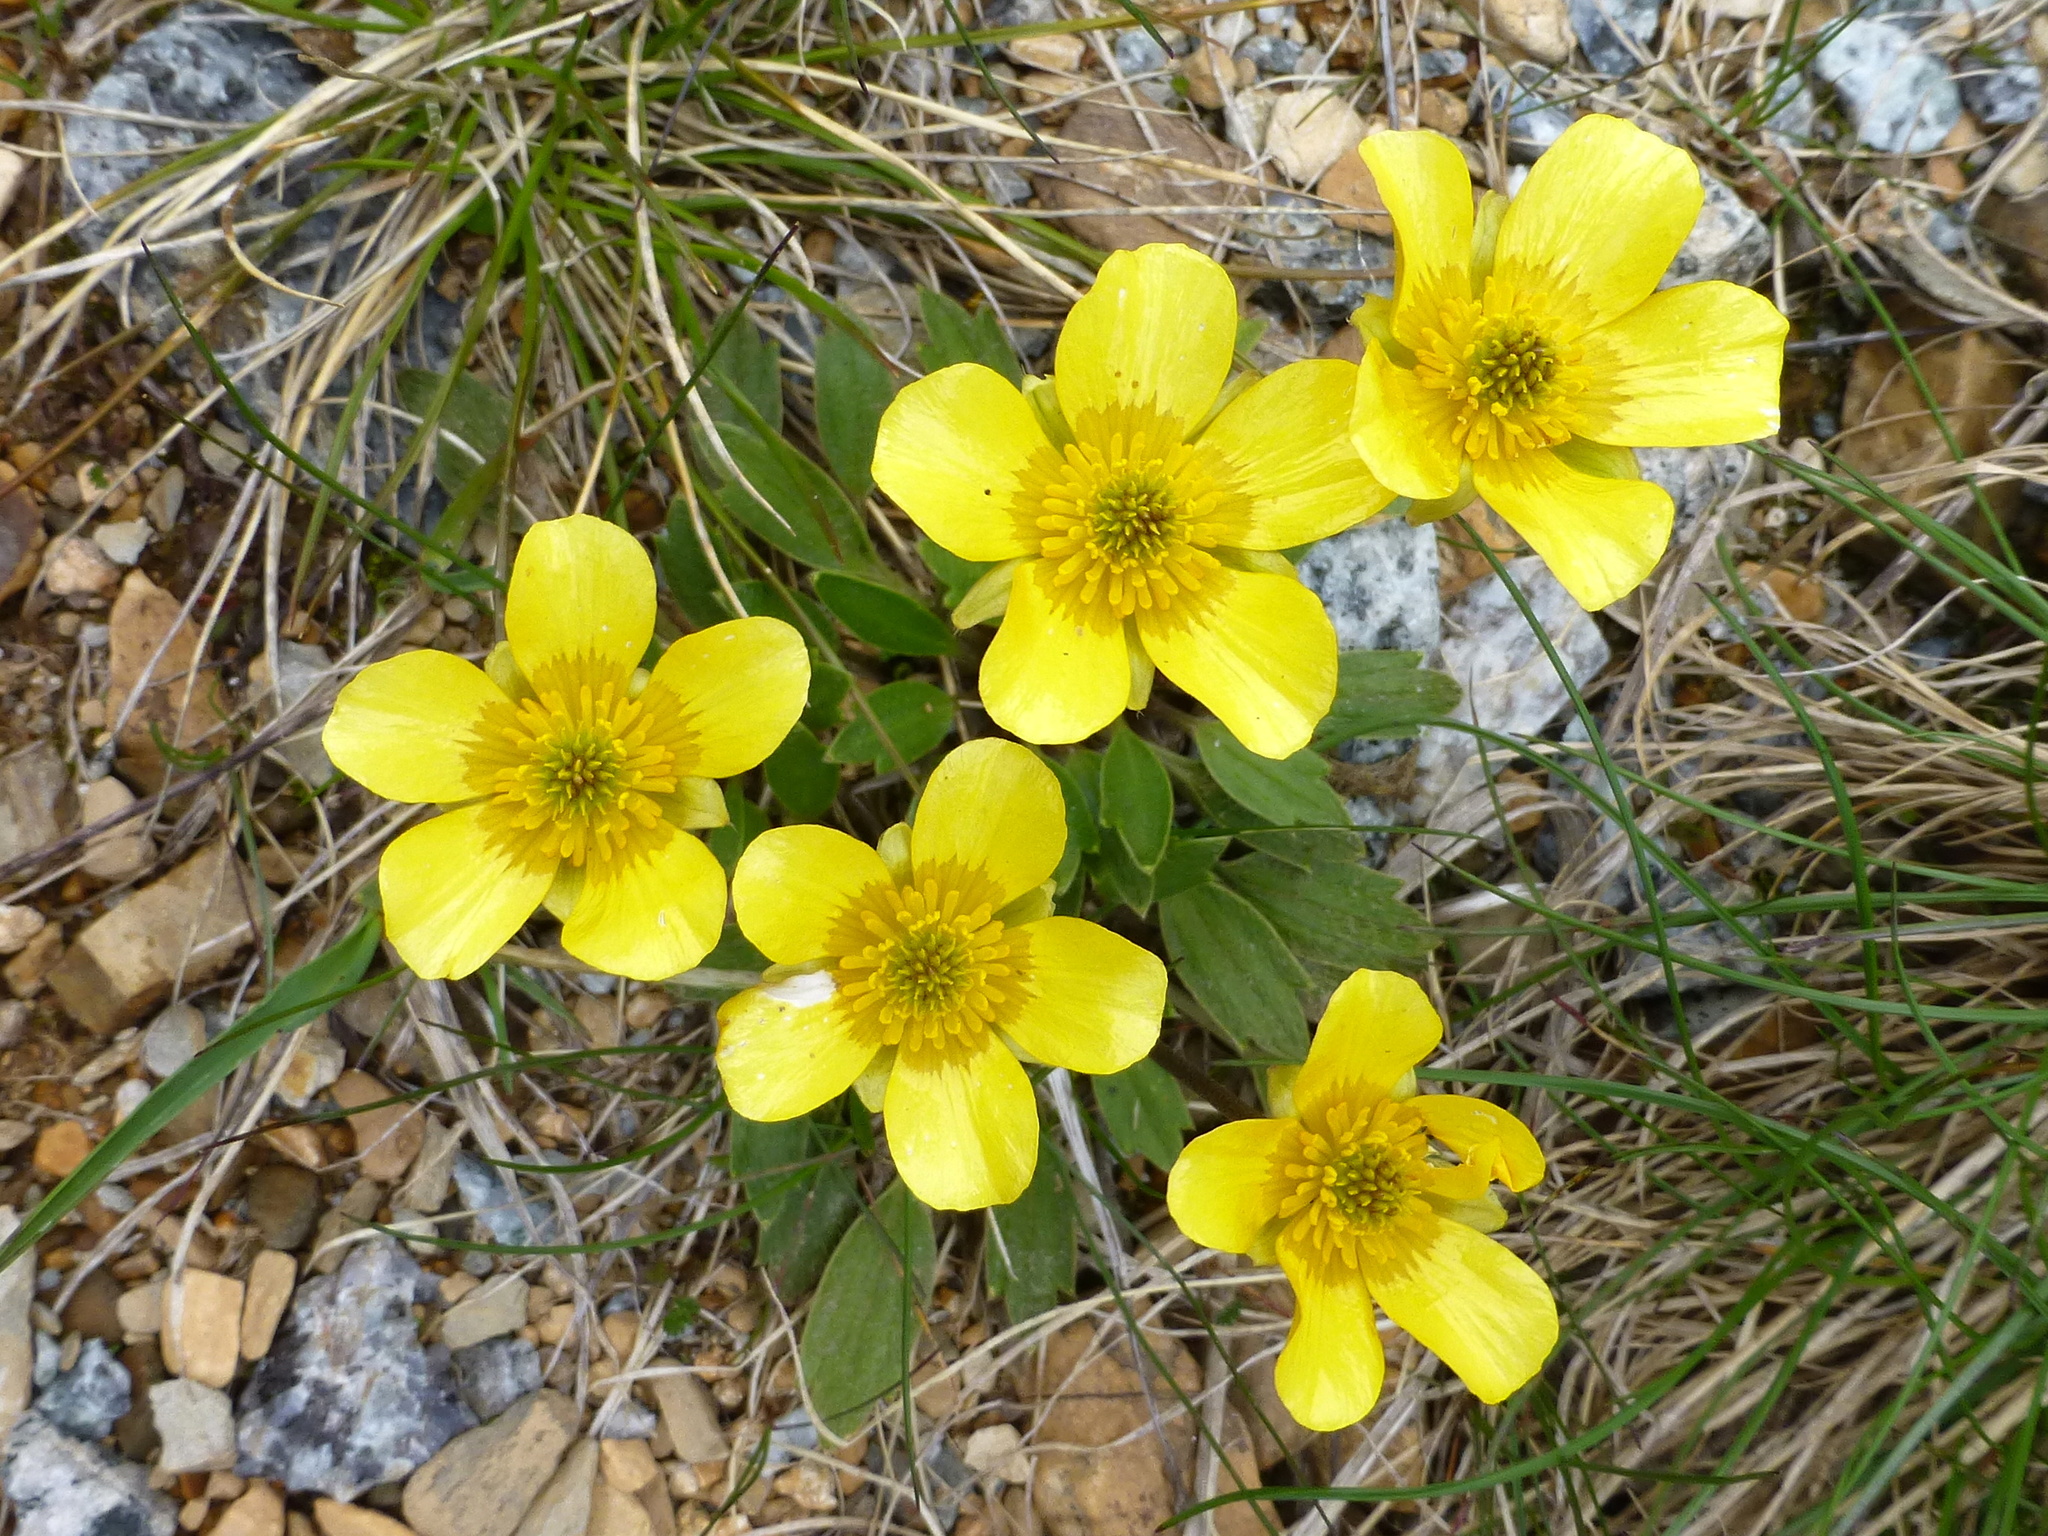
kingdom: Plantae
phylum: Tracheophyta
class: Magnoliopsida
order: Ranunculales
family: Ranunculaceae
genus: Ranunculus
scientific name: Ranunculus muelleri
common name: Felted buttercup
